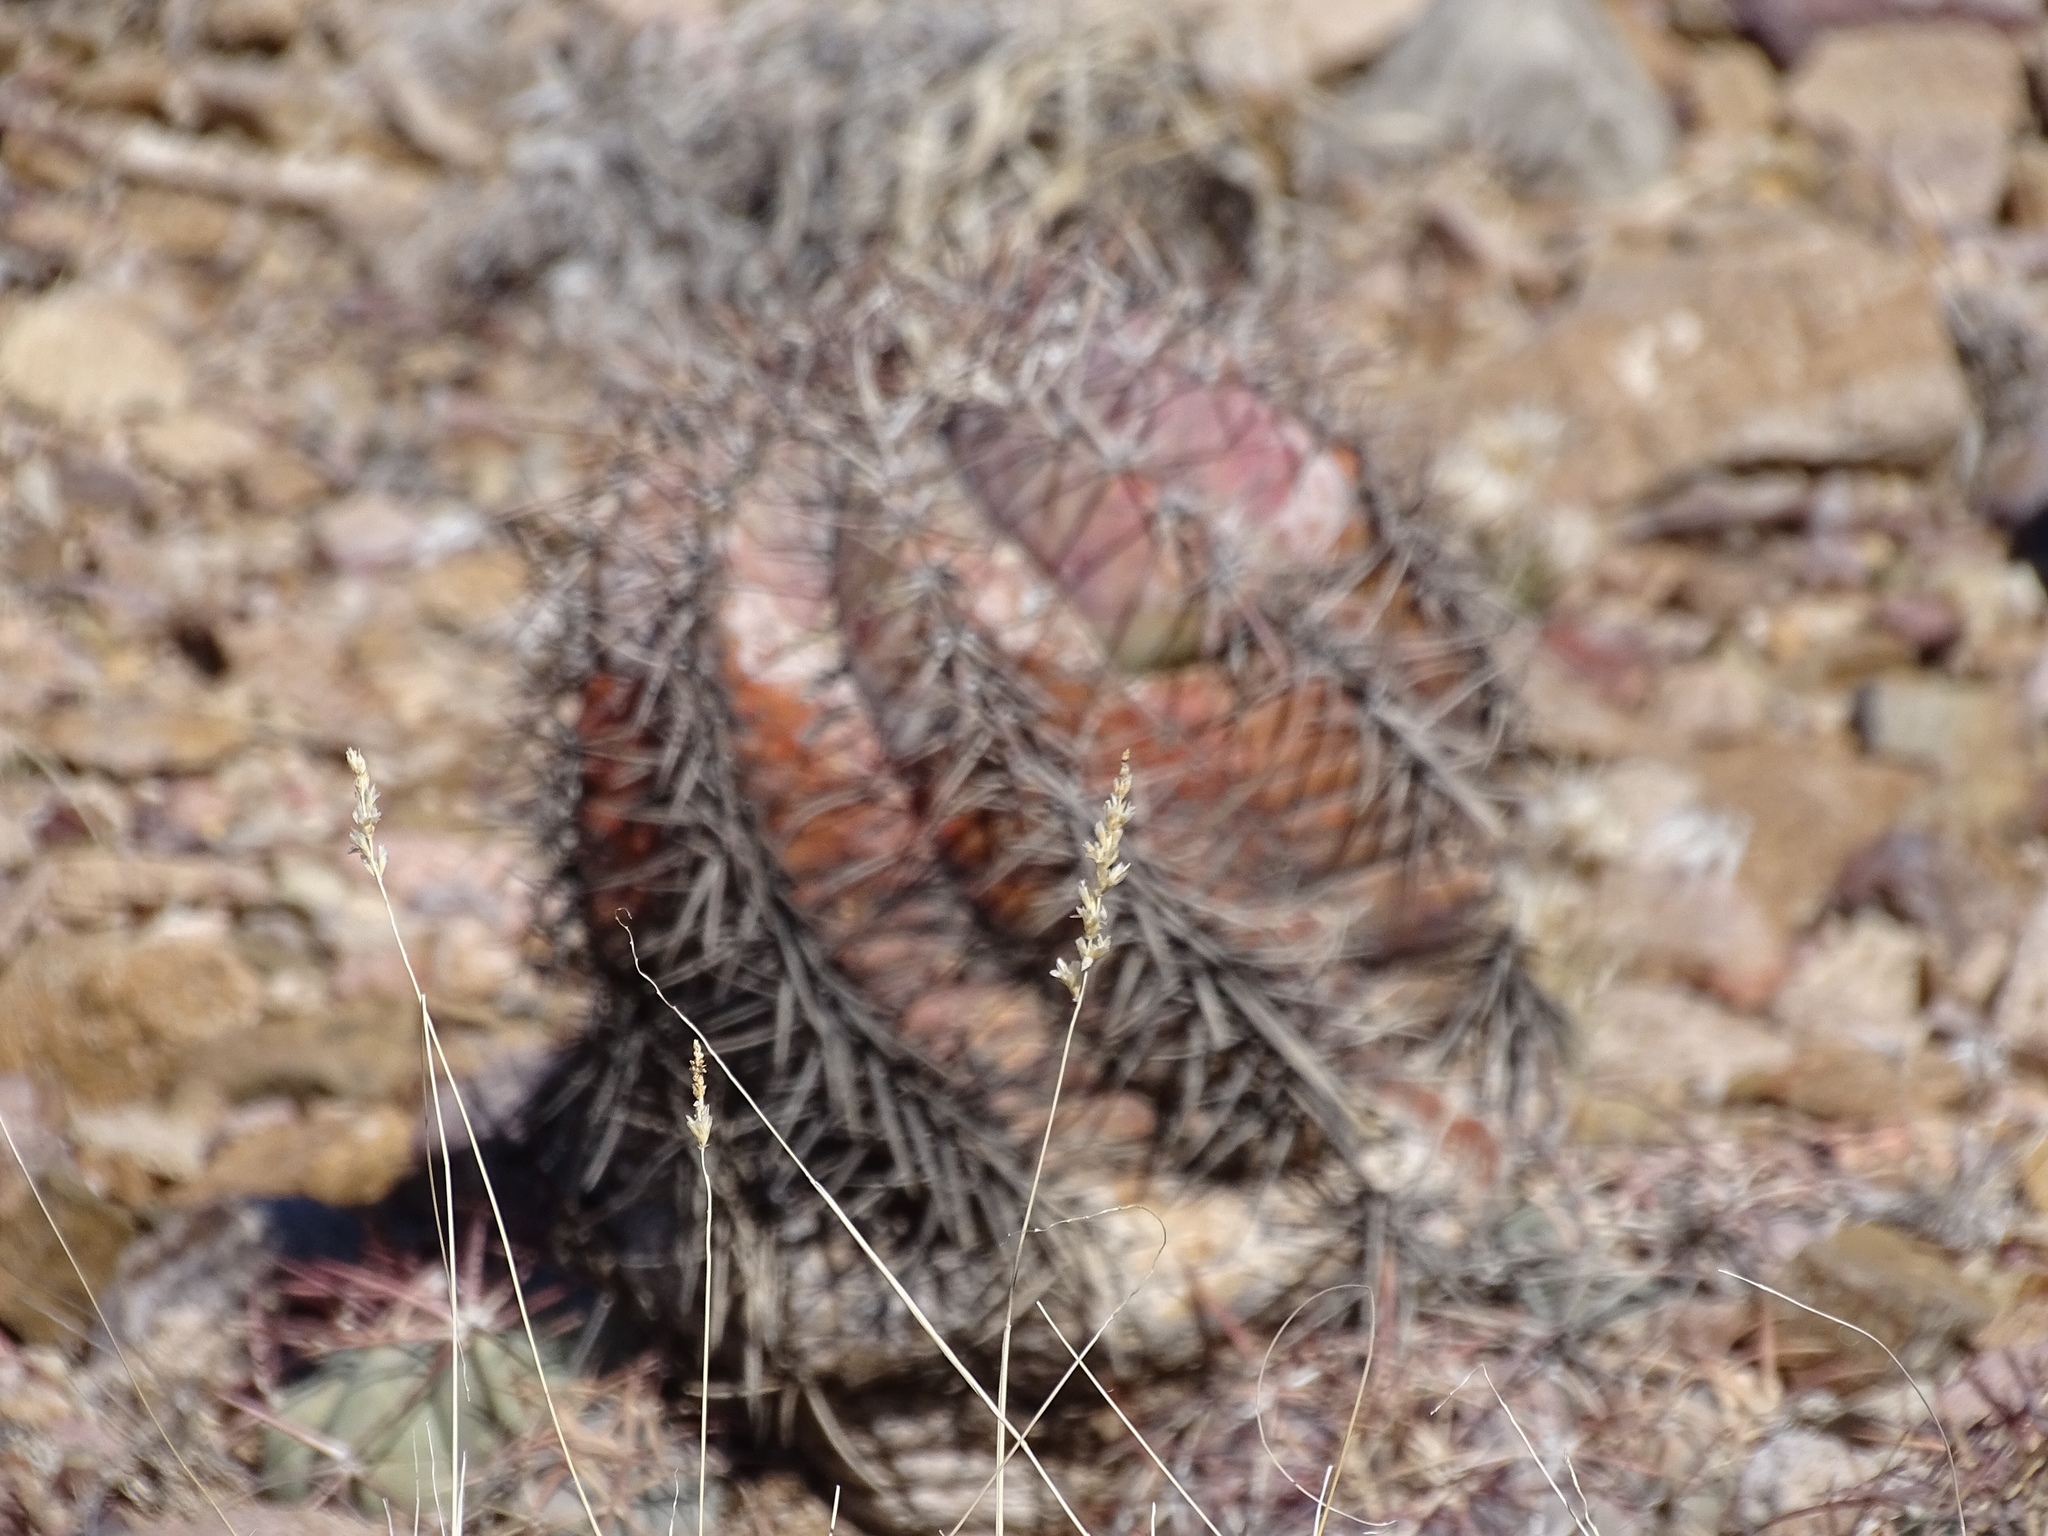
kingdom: Plantae
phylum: Tracheophyta
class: Magnoliopsida
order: Caryophyllales
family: Cactaceae
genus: Echinocactus
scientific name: Echinocactus horizonthalonius
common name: Devilshead
